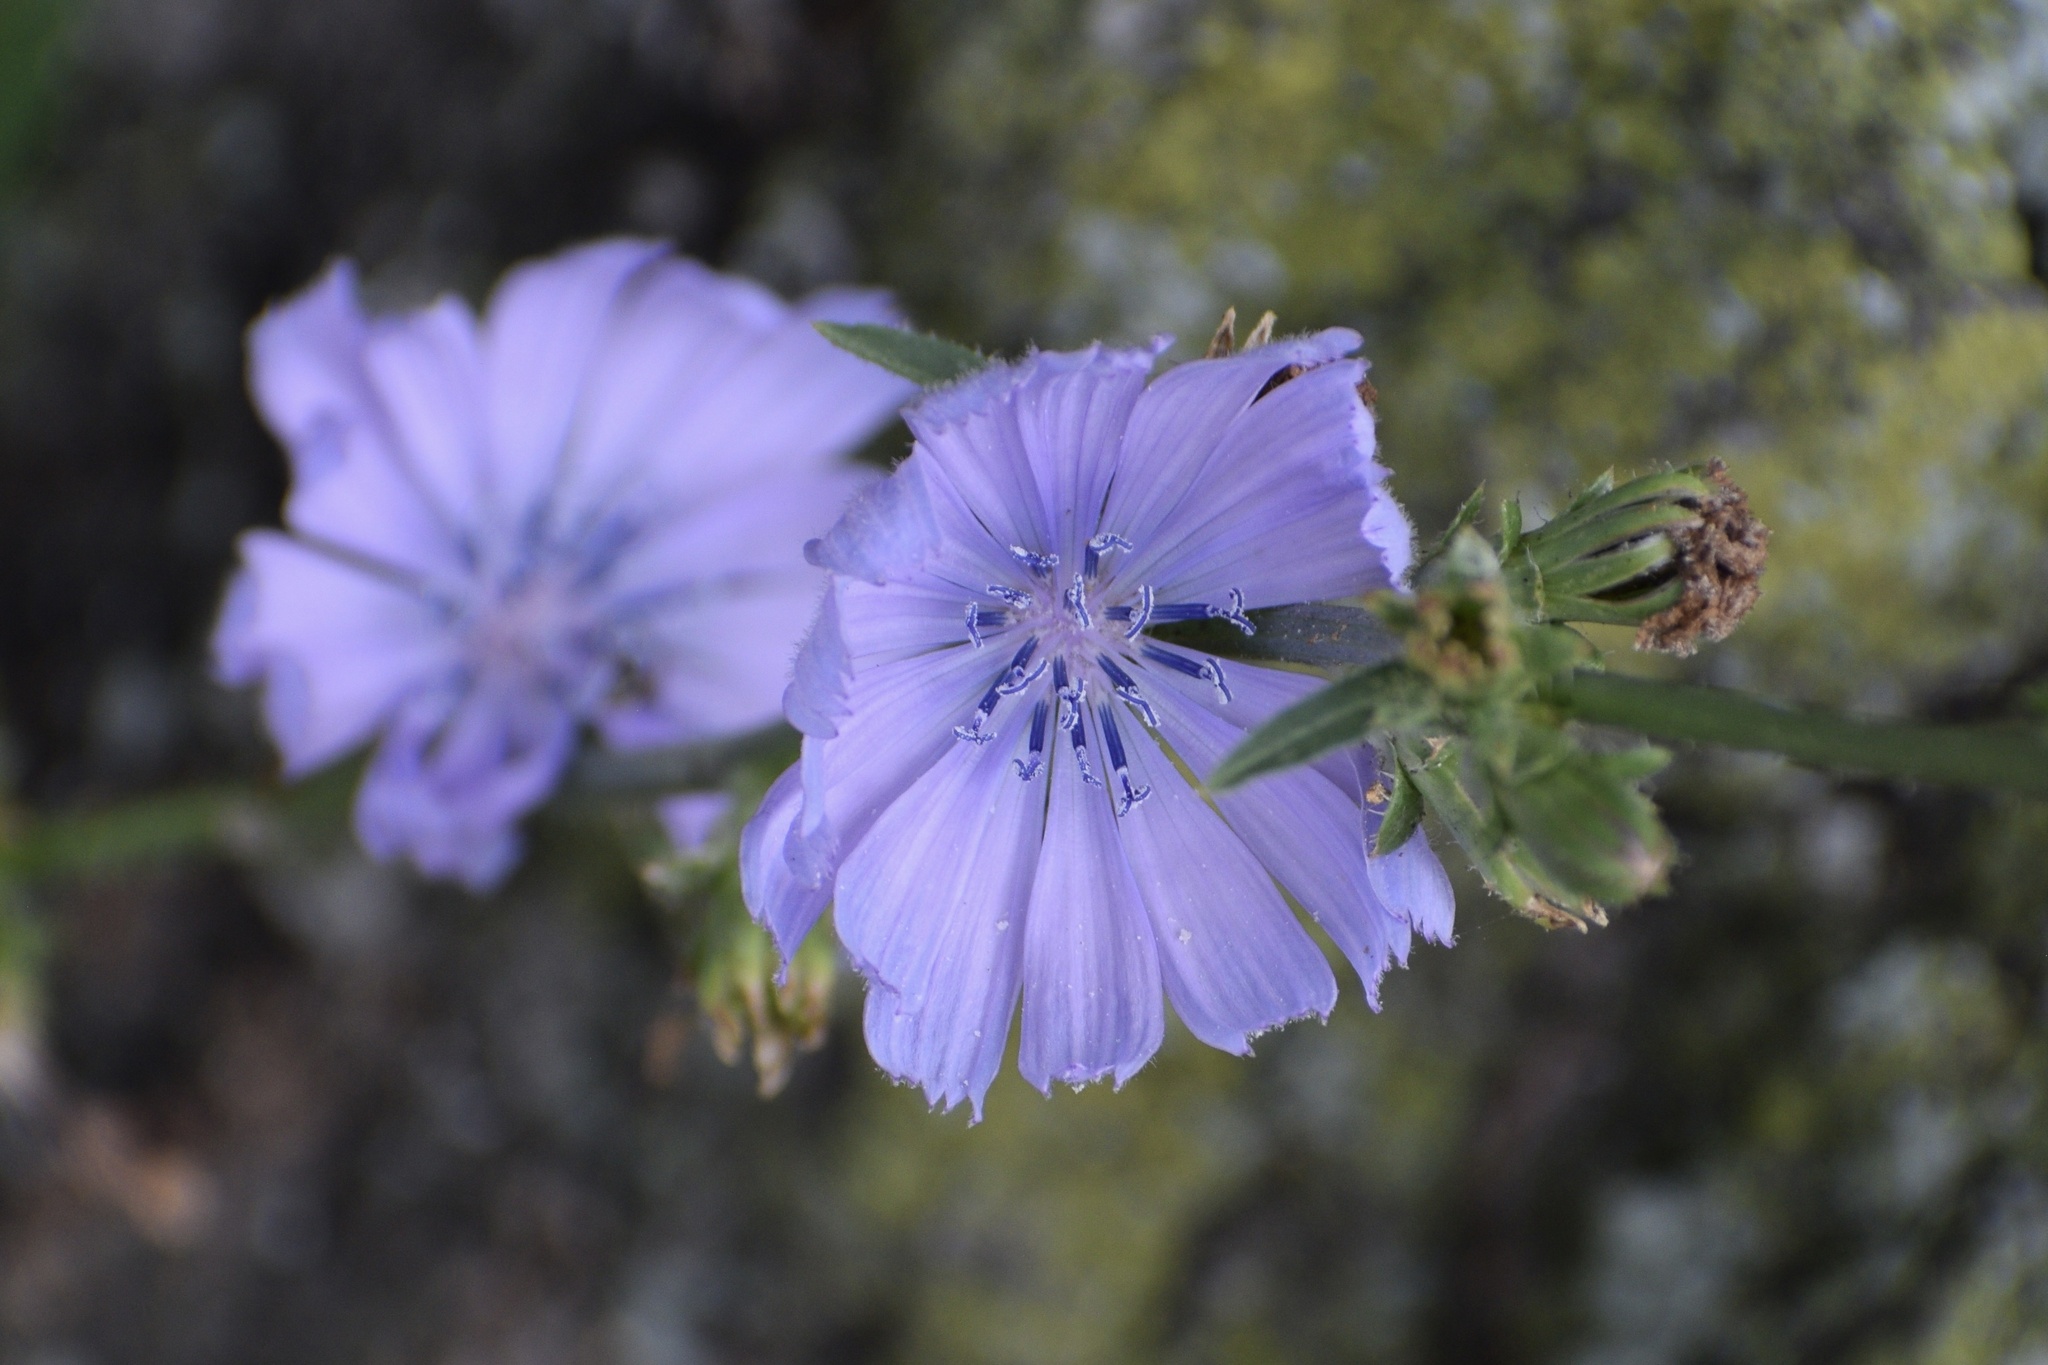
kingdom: Plantae
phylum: Tracheophyta
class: Magnoliopsida
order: Asterales
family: Asteraceae
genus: Cichorium
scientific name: Cichorium intybus
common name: Chicory
